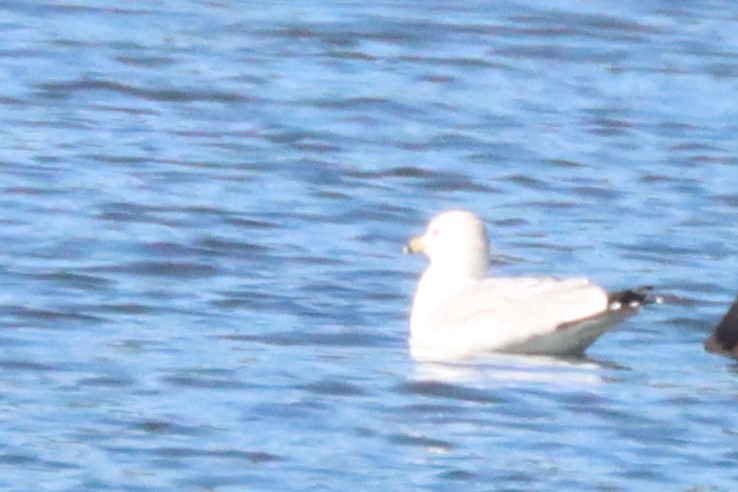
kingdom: Animalia
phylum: Chordata
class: Aves
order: Charadriiformes
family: Laridae
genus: Larus
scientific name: Larus delawarensis
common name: Ring-billed gull
